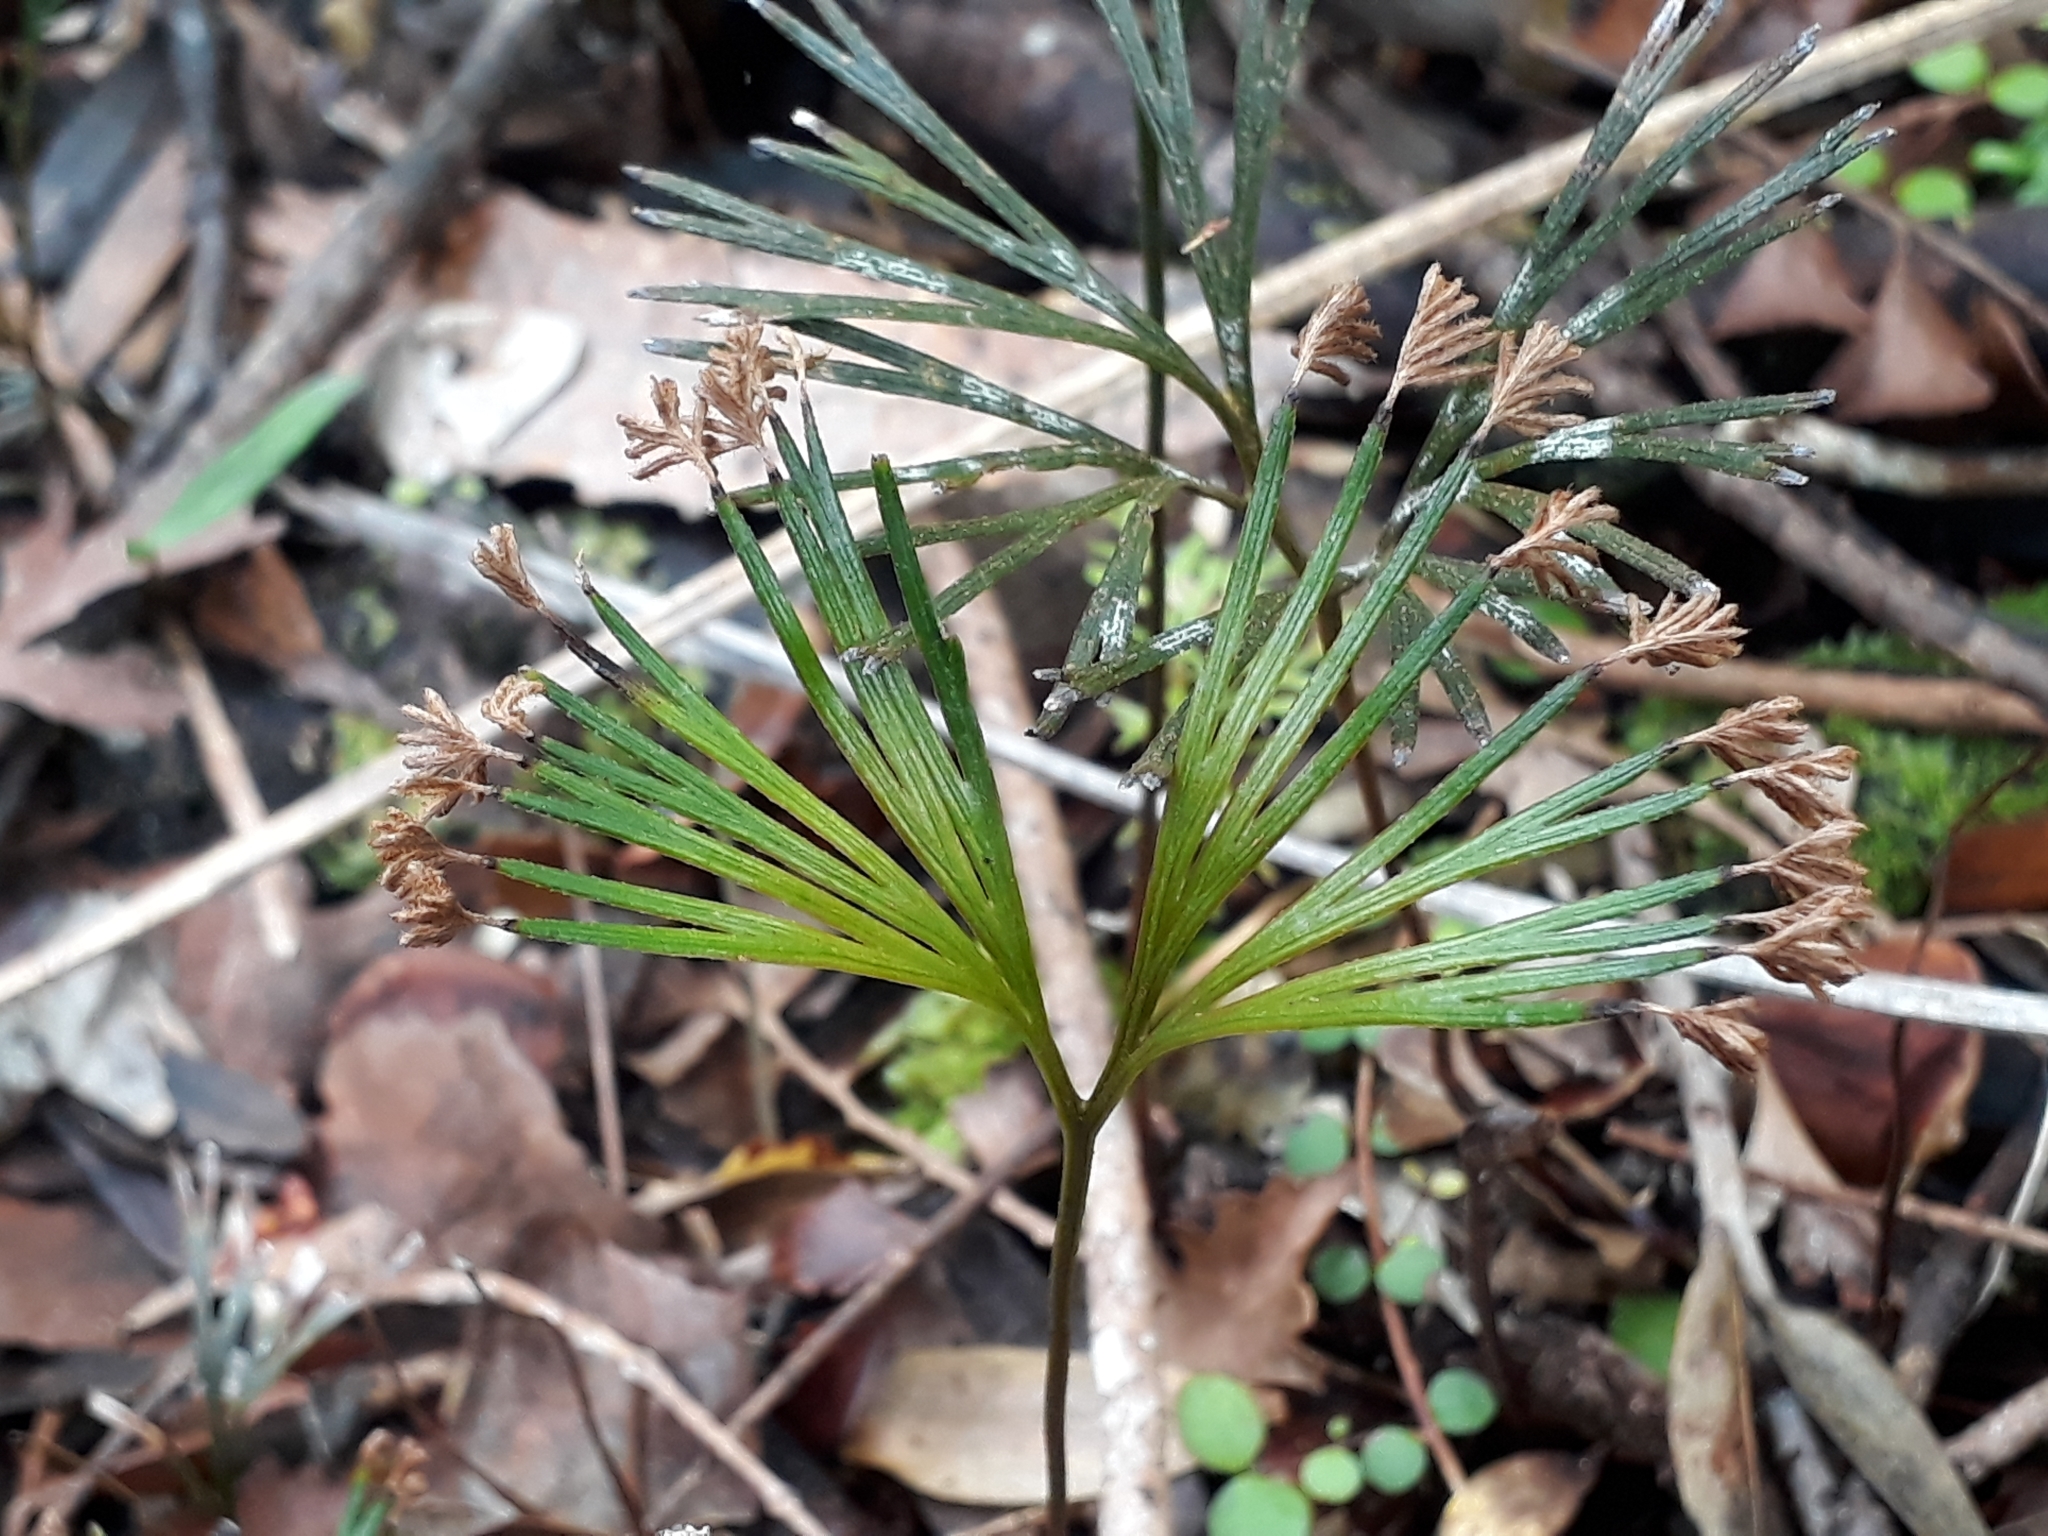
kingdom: Plantae
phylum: Tracheophyta
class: Polypodiopsida
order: Schizaeales
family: Schizaeaceae
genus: Schizaea
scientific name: Schizaea dichotoma
